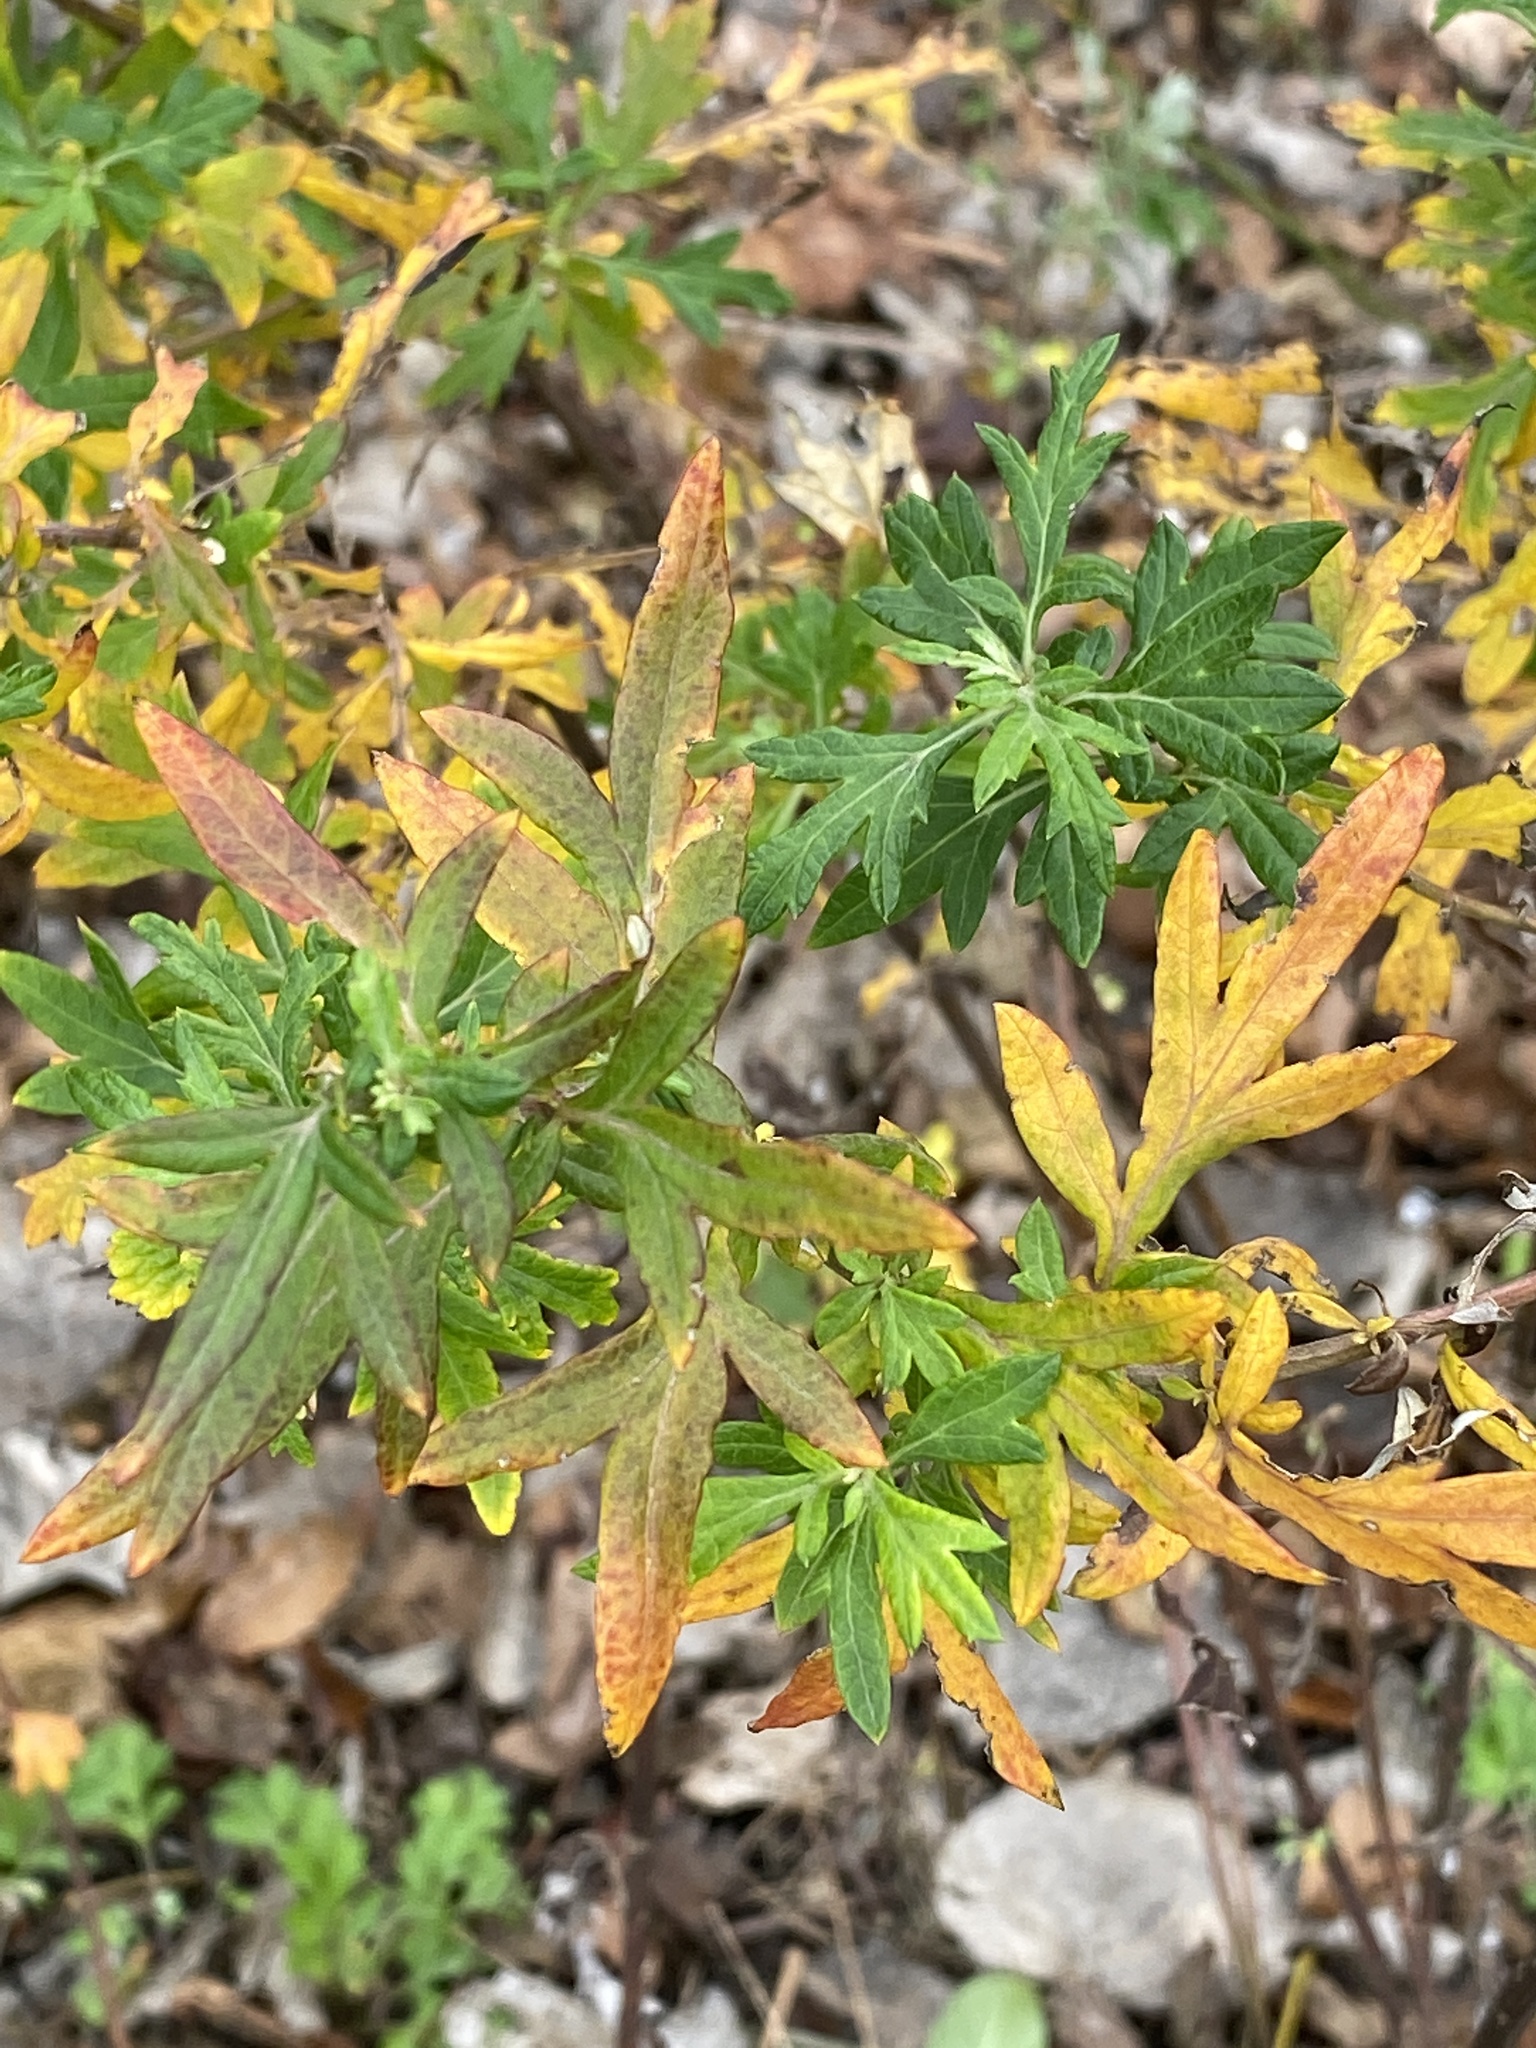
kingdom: Plantae
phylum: Tracheophyta
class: Magnoliopsida
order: Asterales
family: Asteraceae
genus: Artemisia
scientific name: Artemisia vulgaris
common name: Mugwort
